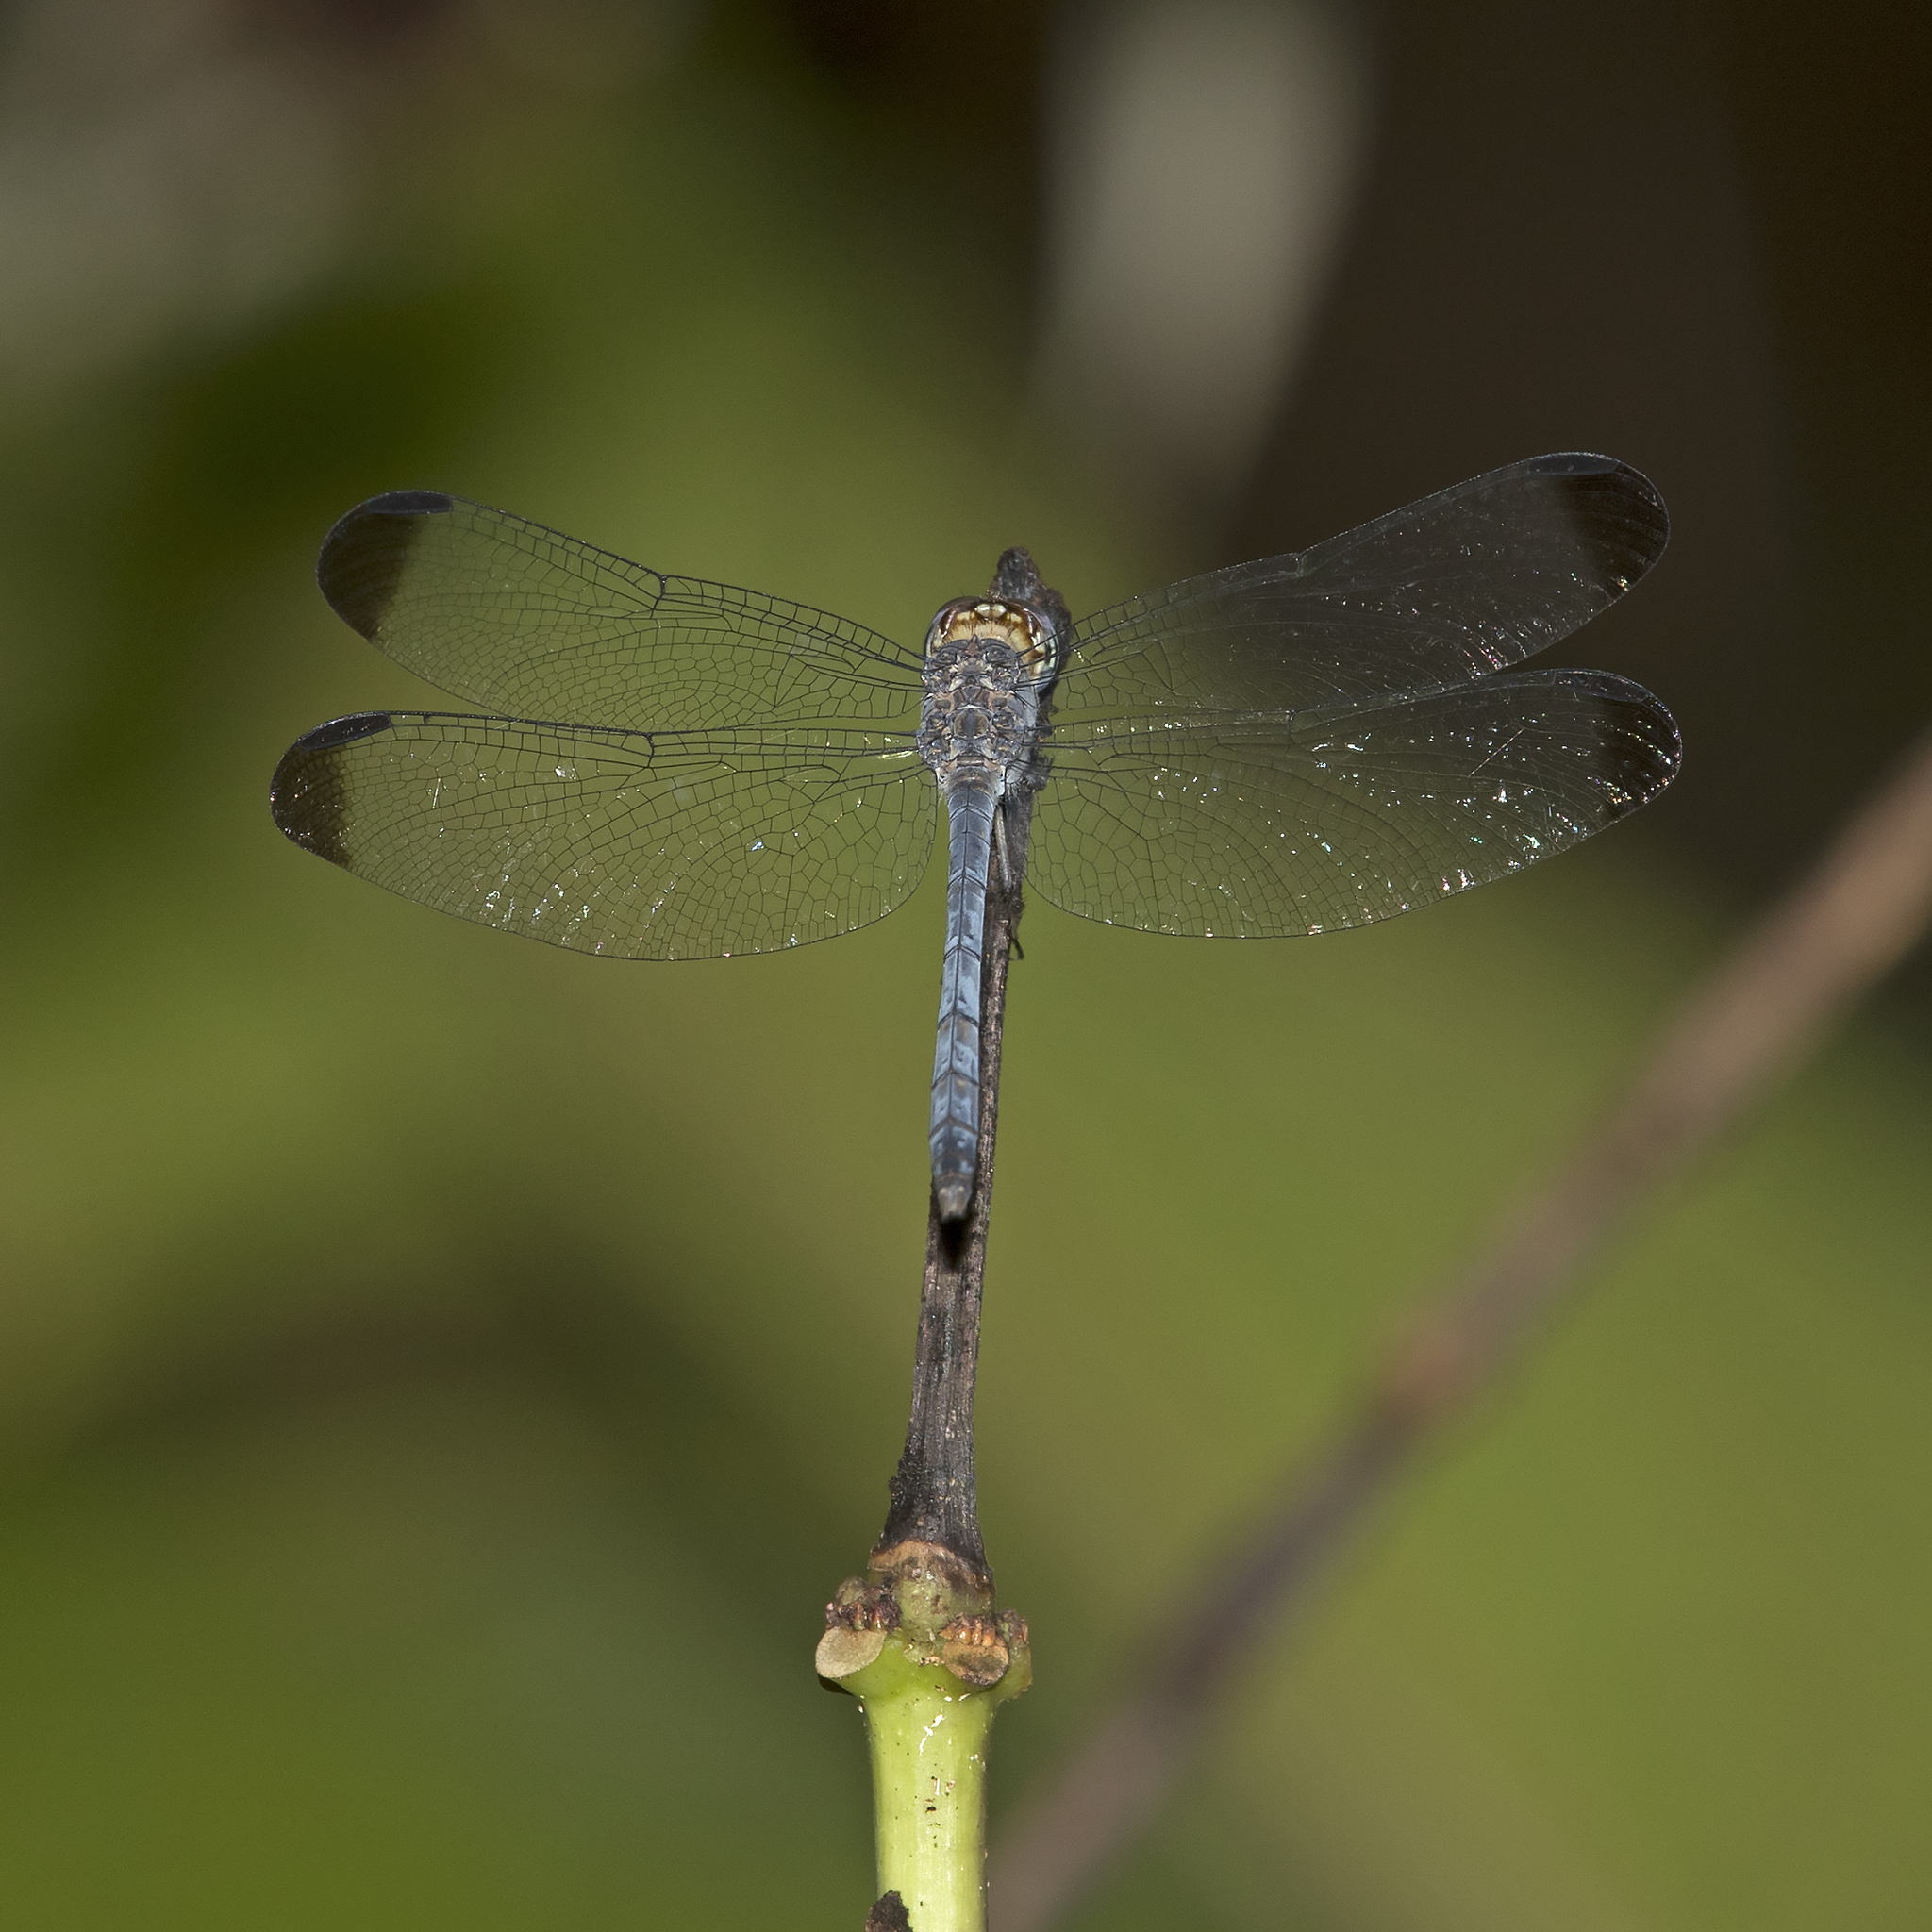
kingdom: Animalia
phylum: Arthropoda
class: Insecta
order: Odonata
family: Libellulidae
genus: Uracis
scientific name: Uracis imbuta
